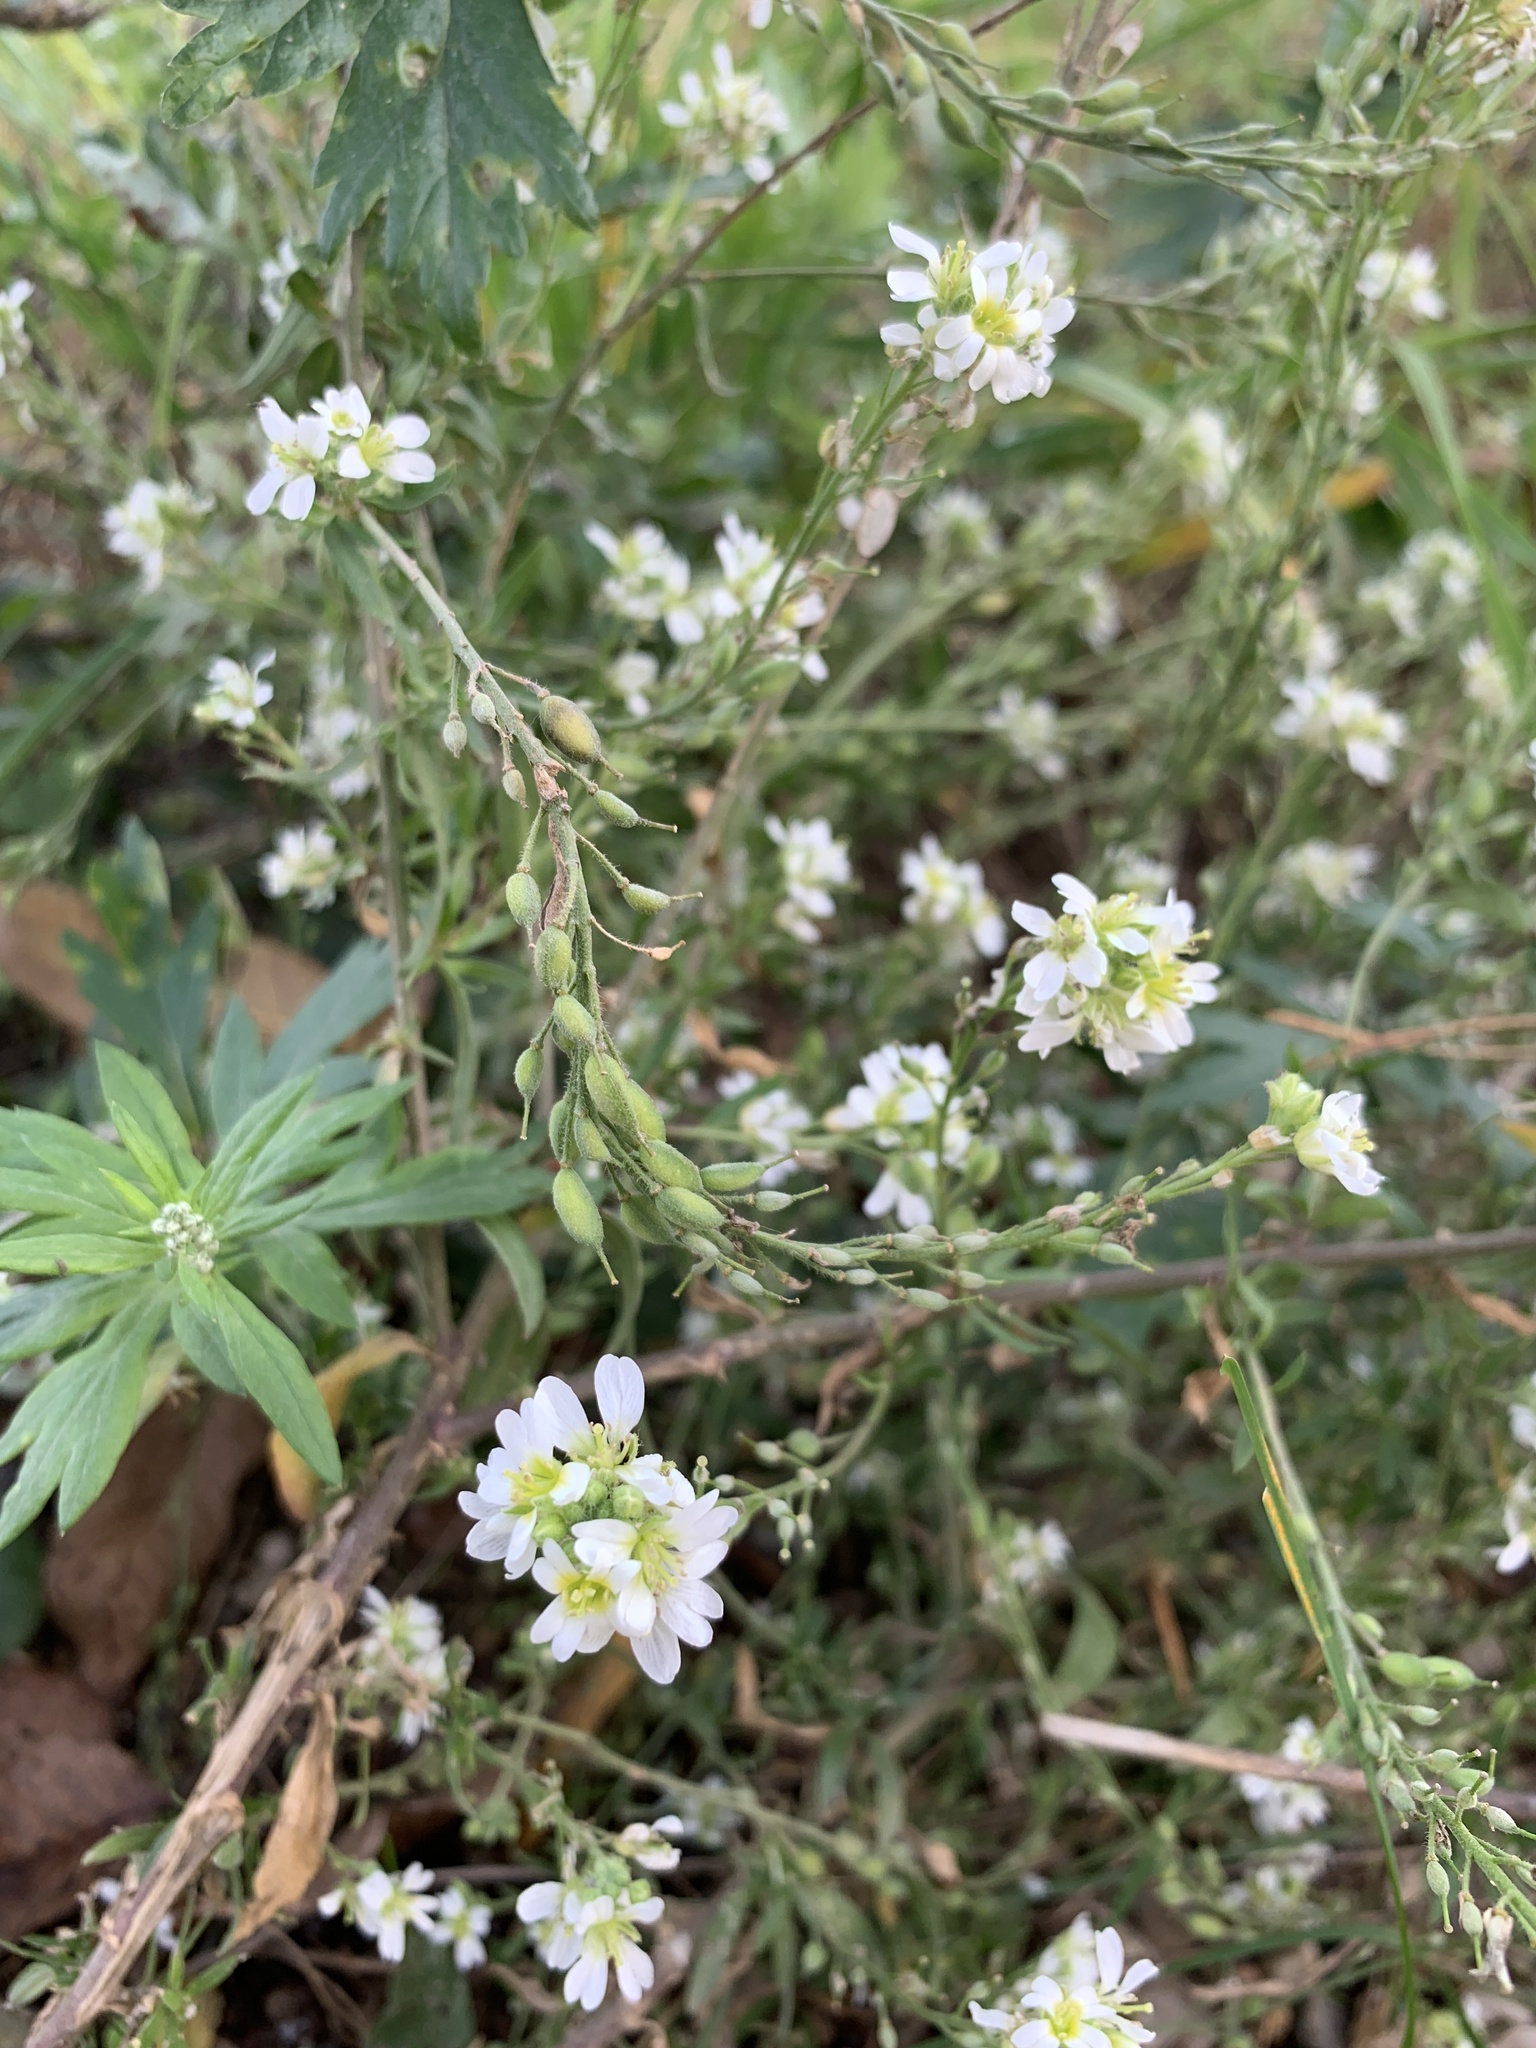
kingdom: Plantae
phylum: Tracheophyta
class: Magnoliopsida
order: Brassicales
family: Brassicaceae
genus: Berteroa
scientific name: Berteroa incana
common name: Hoary alison
